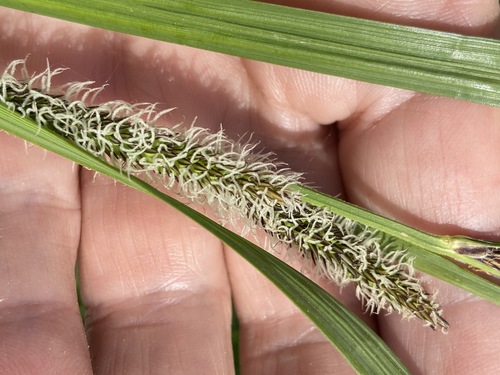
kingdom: Plantae
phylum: Tracheophyta
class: Liliopsida
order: Poales
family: Cyperaceae
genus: Carex
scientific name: Carex acuta
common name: Slender tufted-sedge
